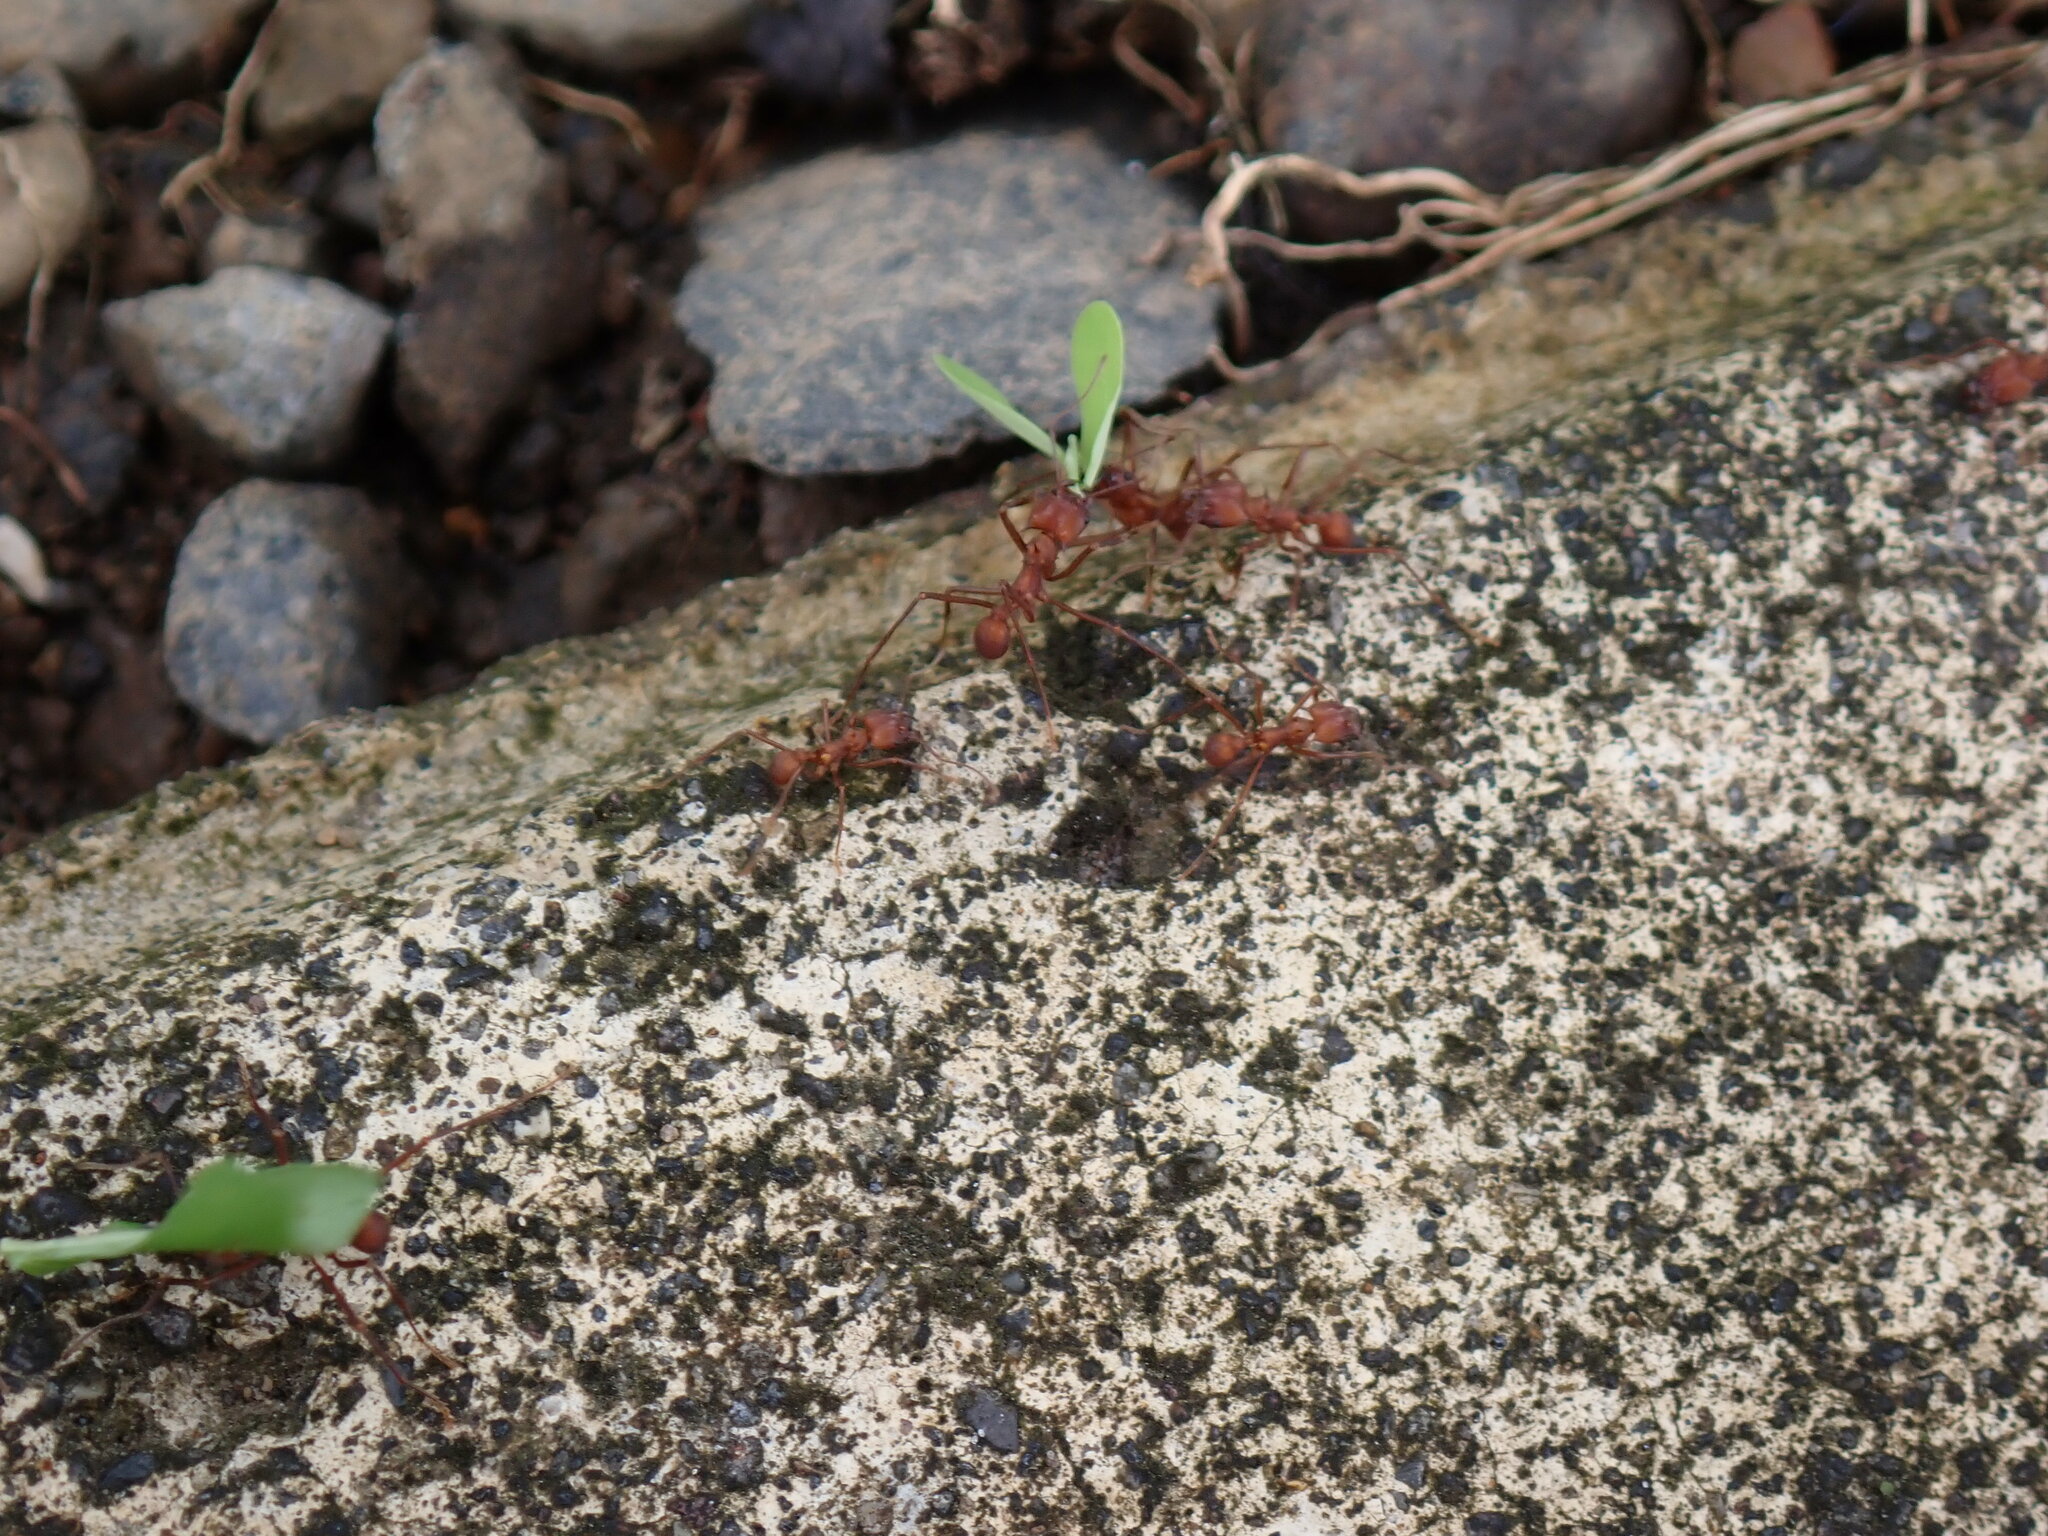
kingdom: Animalia
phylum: Arthropoda
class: Insecta
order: Hymenoptera
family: Formicidae
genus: Atta
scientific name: Atta colombica
